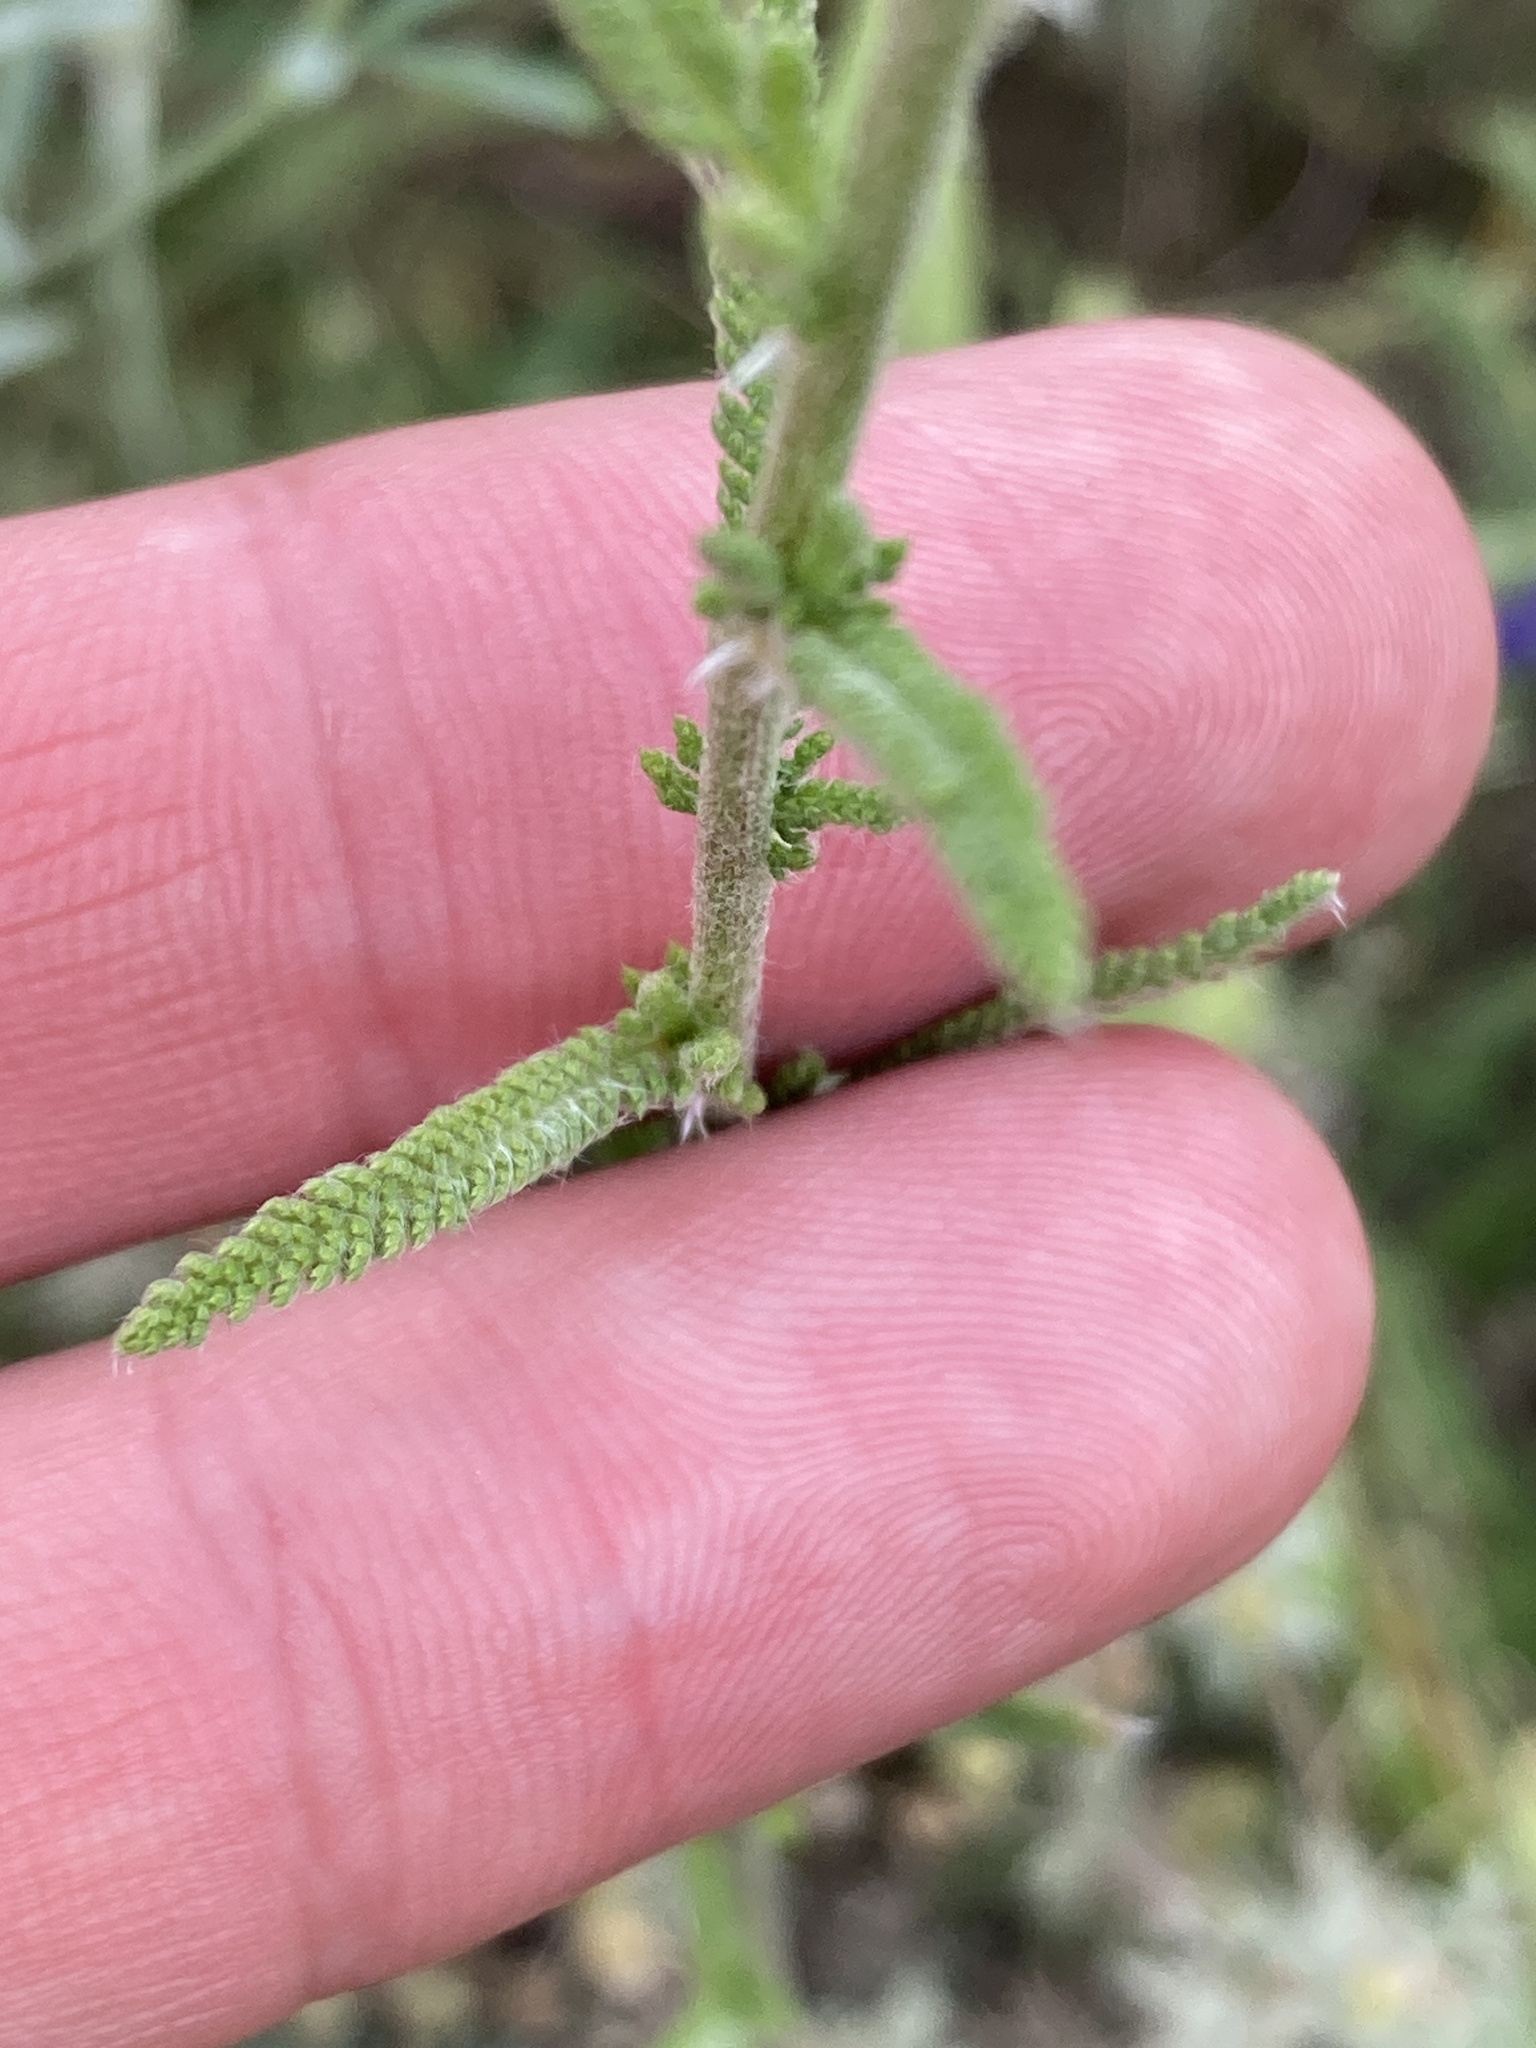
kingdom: Plantae
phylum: Tracheophyta
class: Magnoliopsida
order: Asterales
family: Asteraceae
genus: Achillea
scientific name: Achillea setacea
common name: Bristly yarrow
